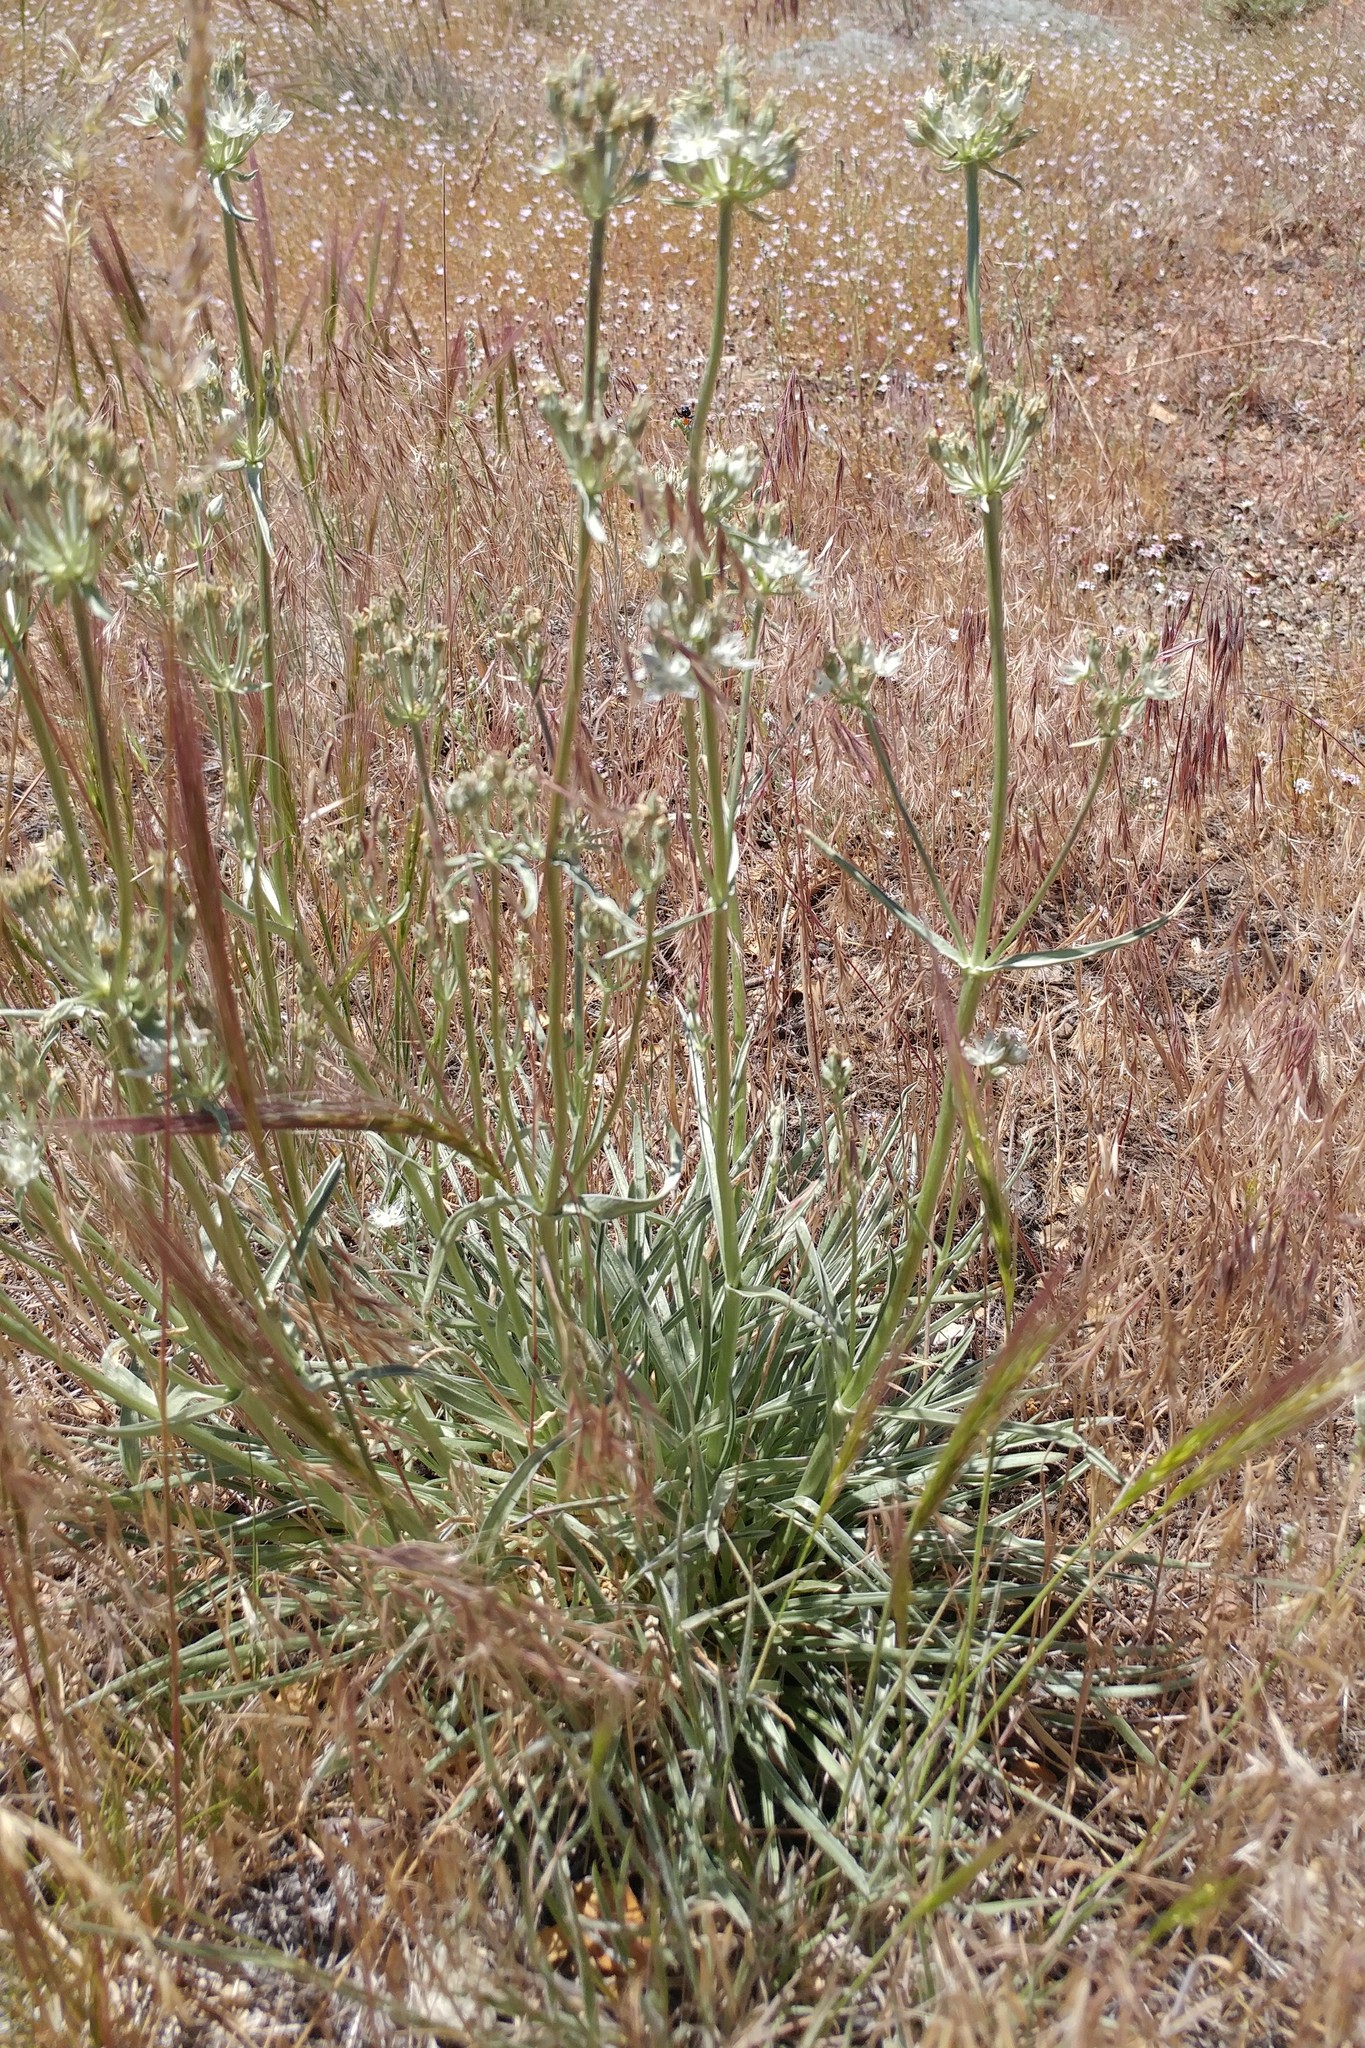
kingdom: Plantae
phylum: Tracheophyta
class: Magnoliopsida
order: Gentianales
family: Gentianaceae
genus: Frasera
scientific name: Frasera neglecta
